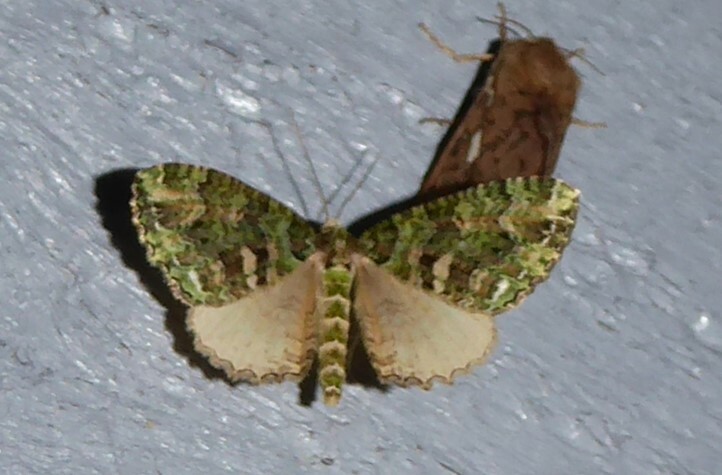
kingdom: Animalia
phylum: Arthropoda
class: Insecta
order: Lepidoptera
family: Geometridae
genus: Austrocidaria
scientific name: Austrocidaria similata
